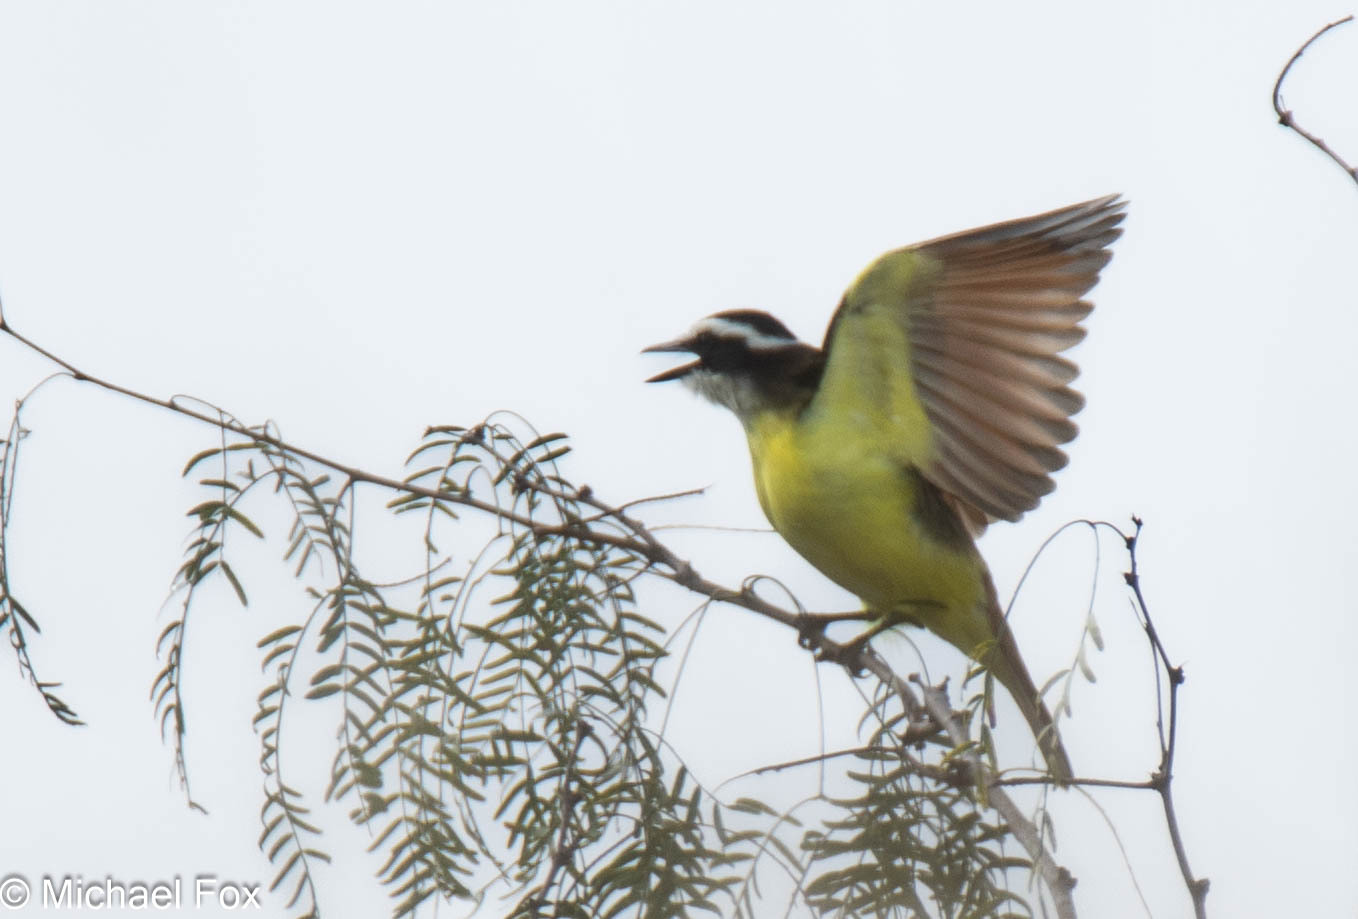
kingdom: Animalia
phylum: Chordata
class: Aves
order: Passeriformes
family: Tyrannidae
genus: Pitangus
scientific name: Pitangus sulphuratus
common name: Great kiskadee
